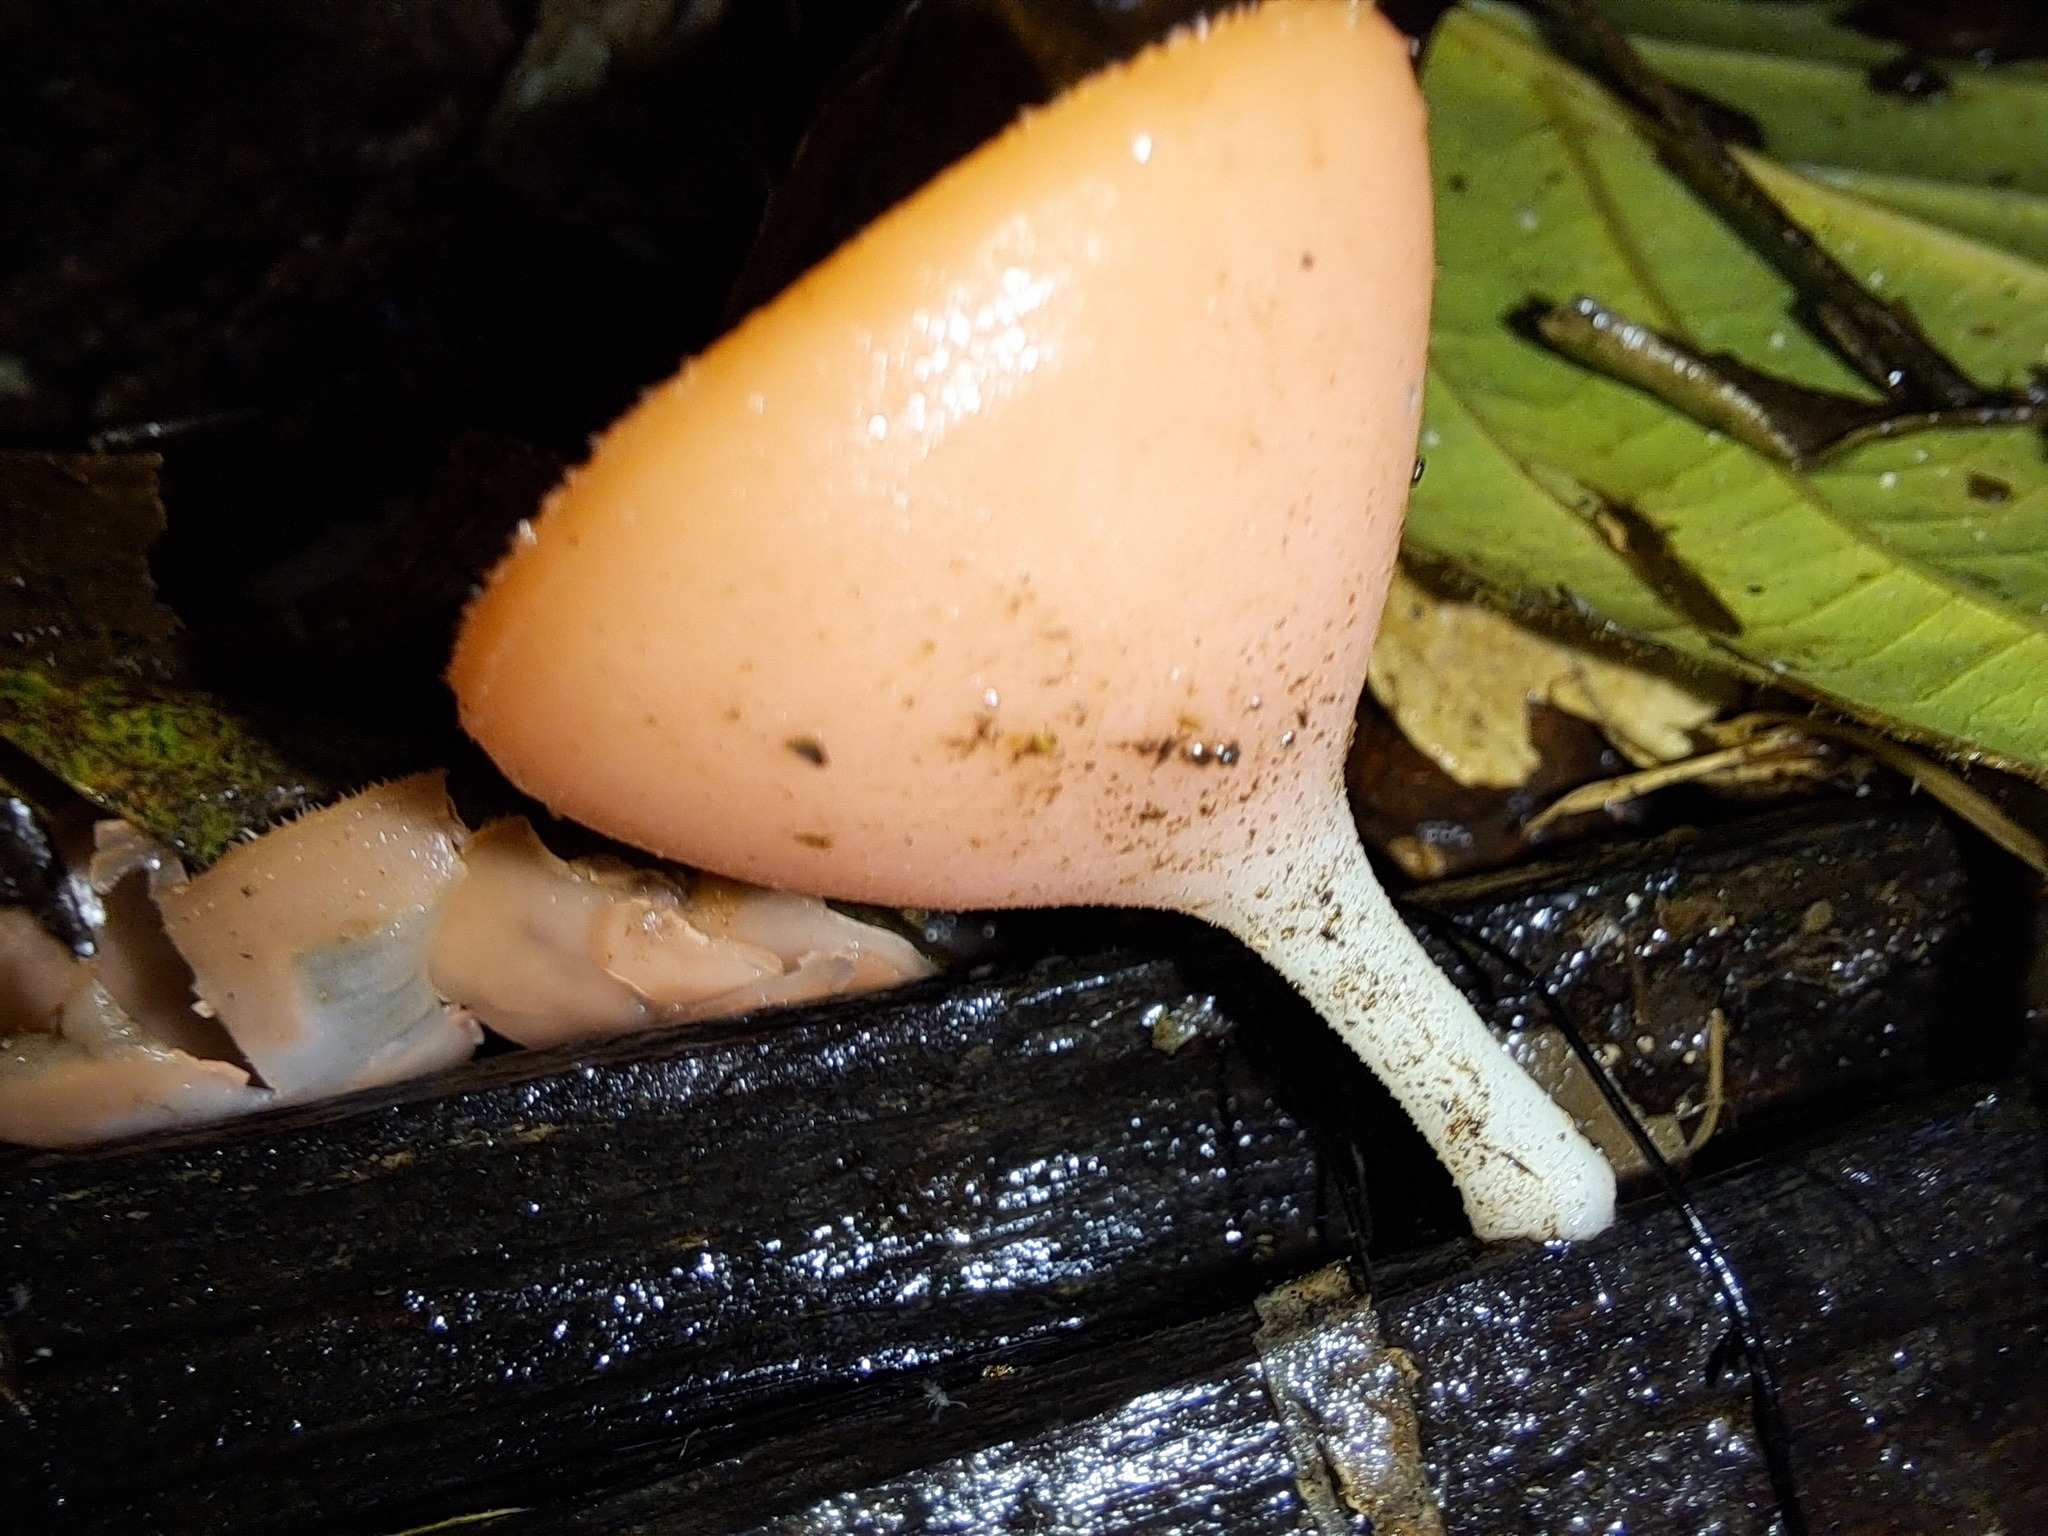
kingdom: Fungi
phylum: Ascomycota
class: Pezizomycetes
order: Pezizales
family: Sarcoscyphaceae
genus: Cookeina
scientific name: Cookeina speciosa
